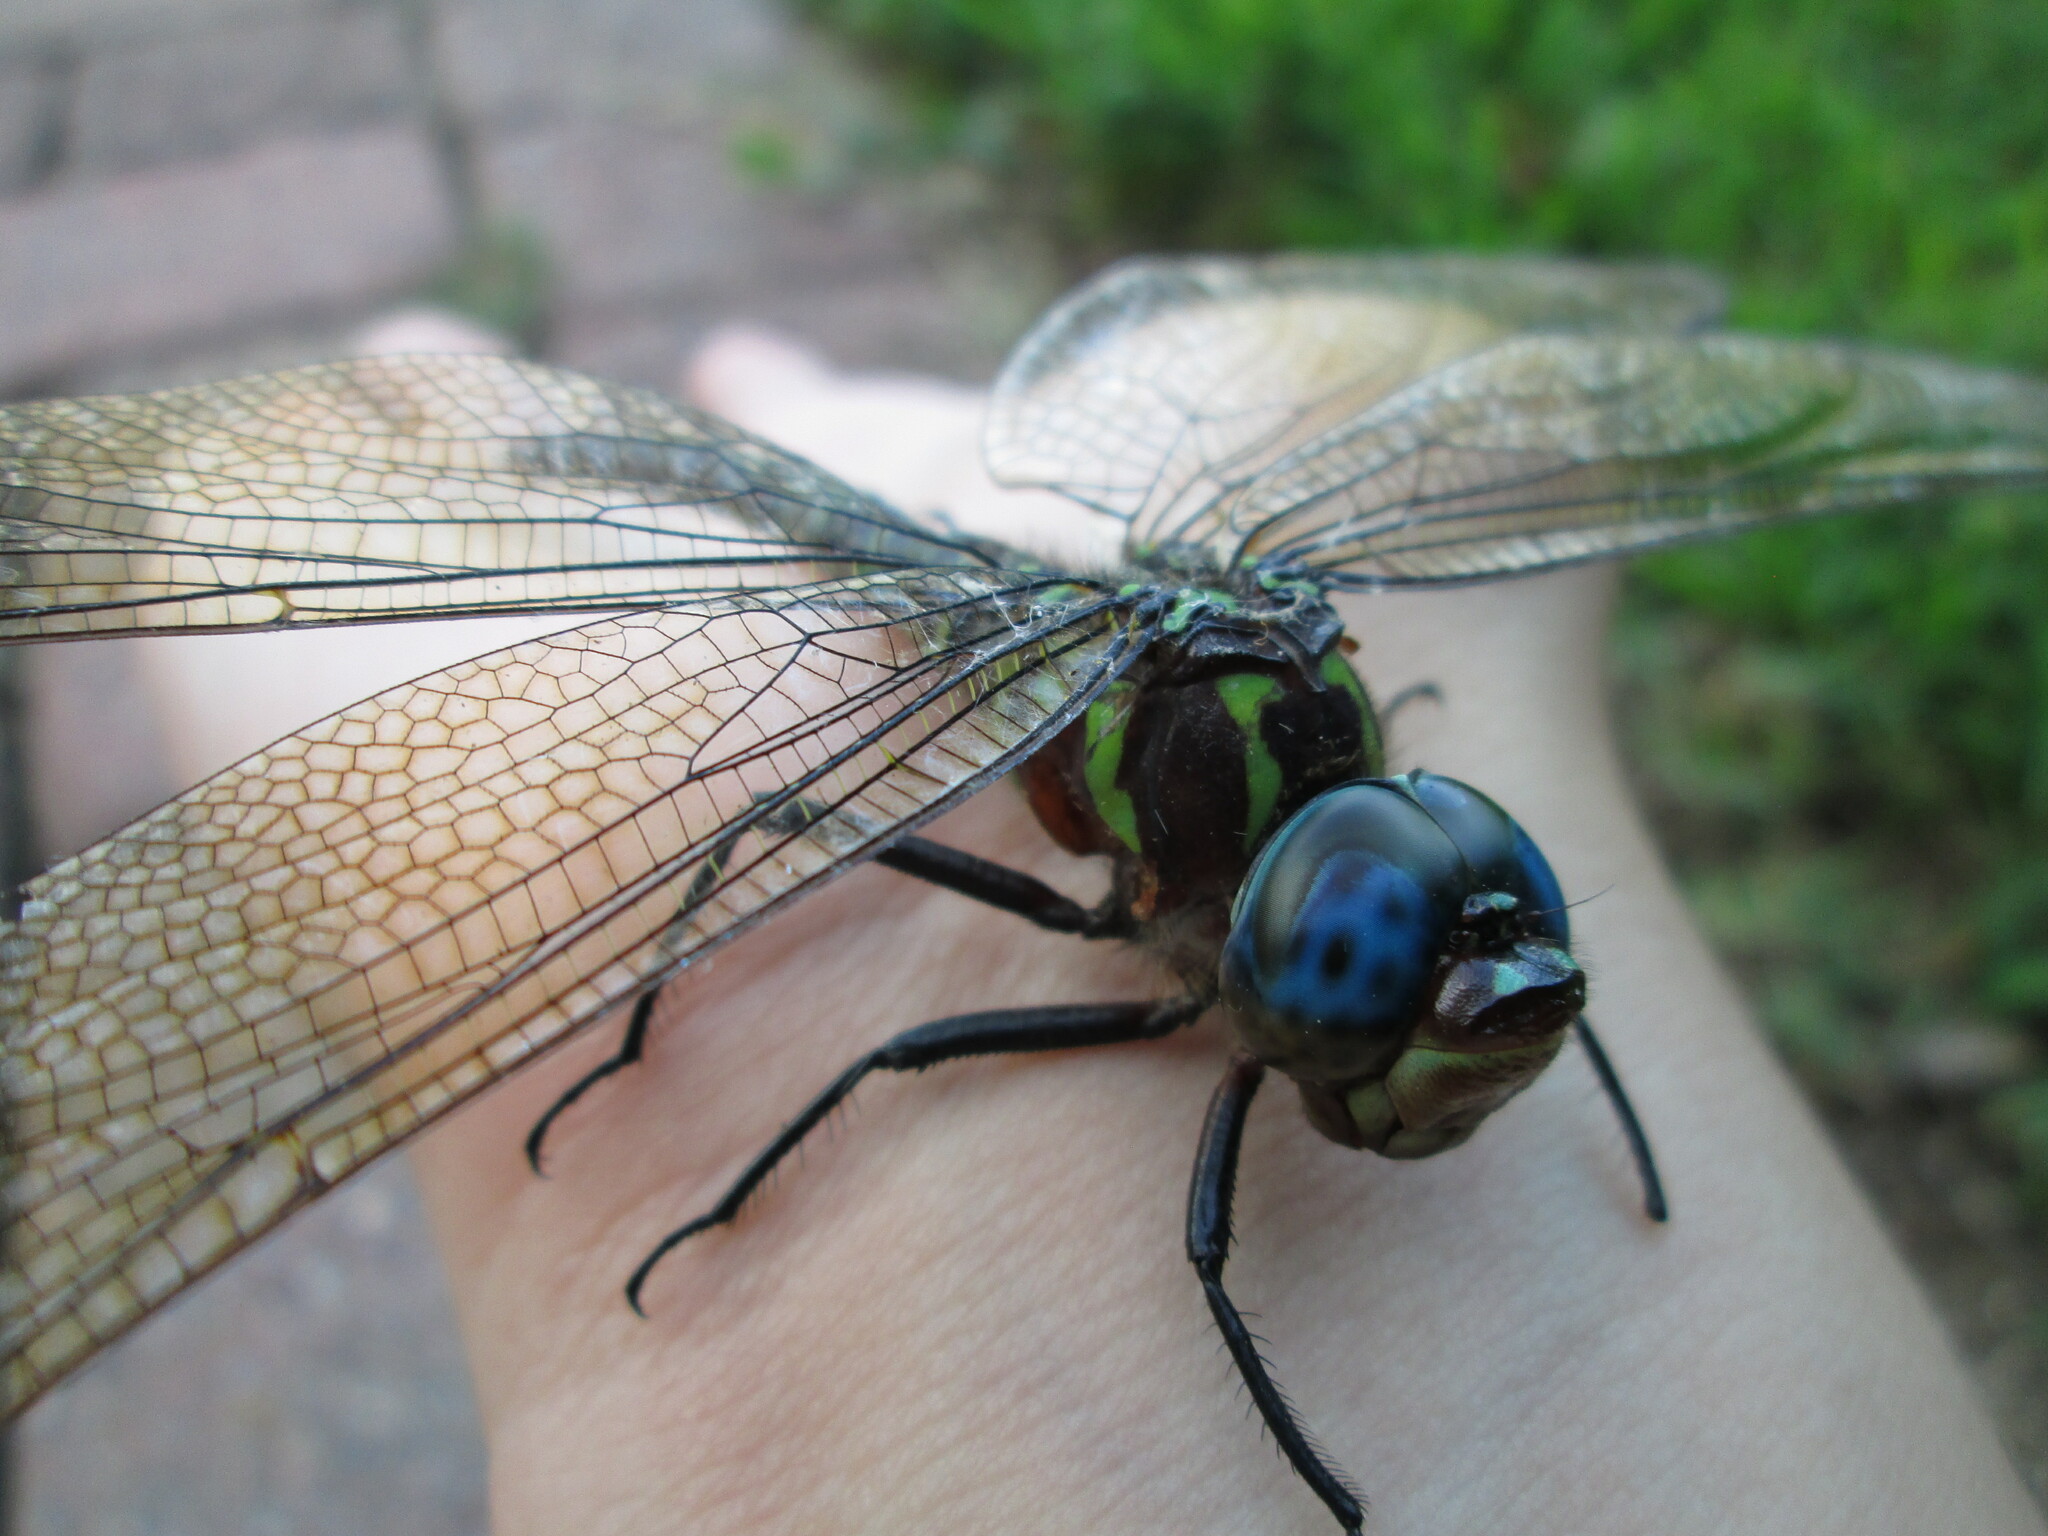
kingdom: Animalia
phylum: Arthropoda
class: Insecta
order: Odonata
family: Aeshnidae
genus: Epiaeschna
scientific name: Epiaeschna heros
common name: Swamp darner
